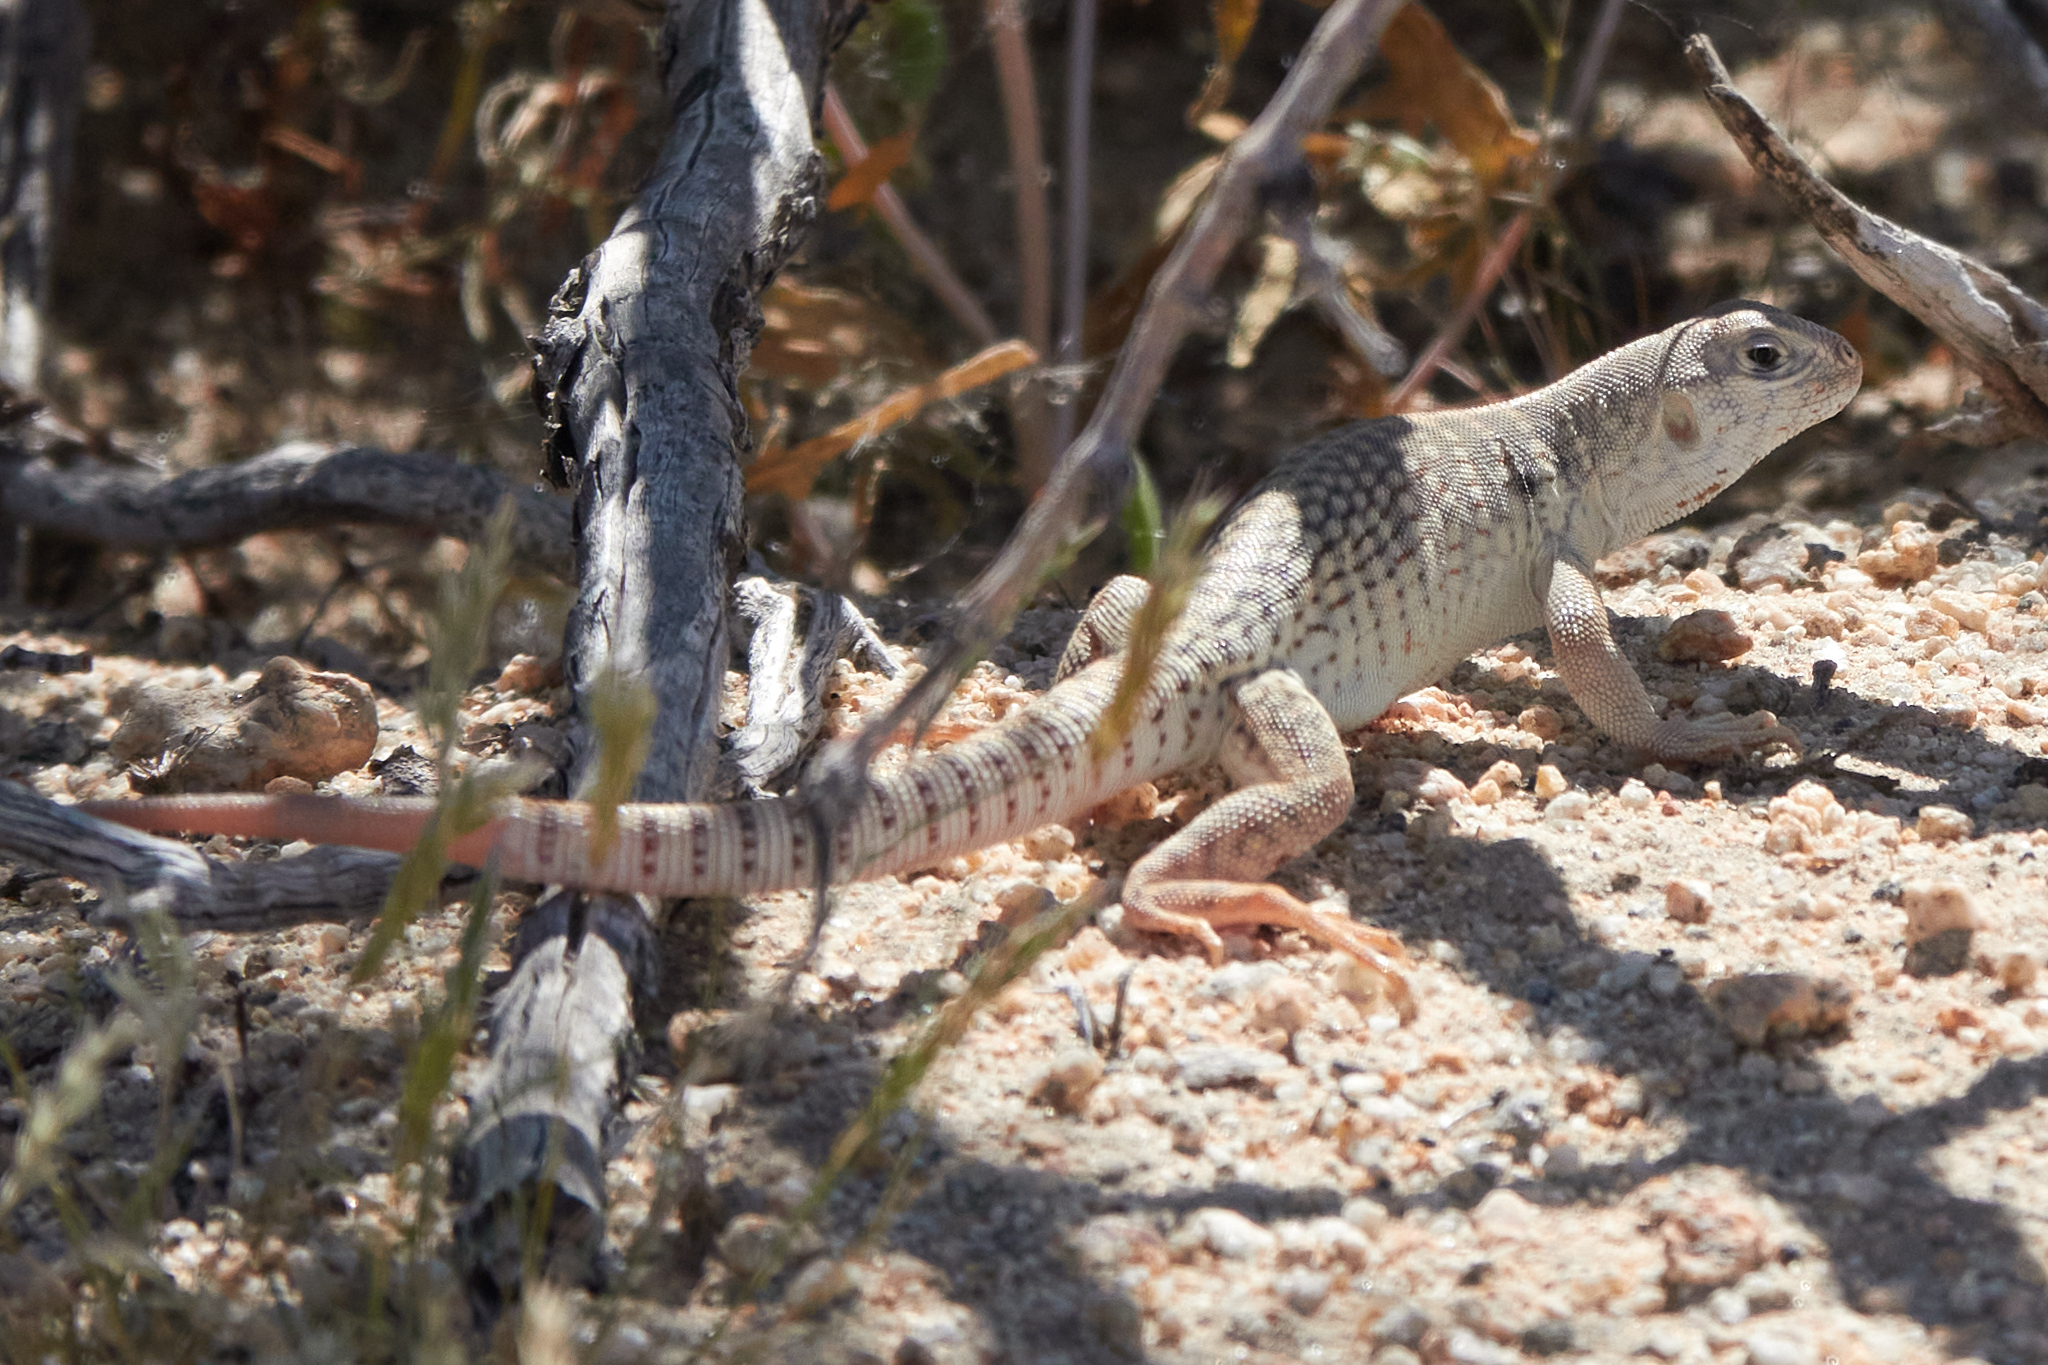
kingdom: Animalia
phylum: Chordata
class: Squamata
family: Iguanidae
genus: Dipsosaurus
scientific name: Dipsosaurus dorsalis
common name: Desert iguana
